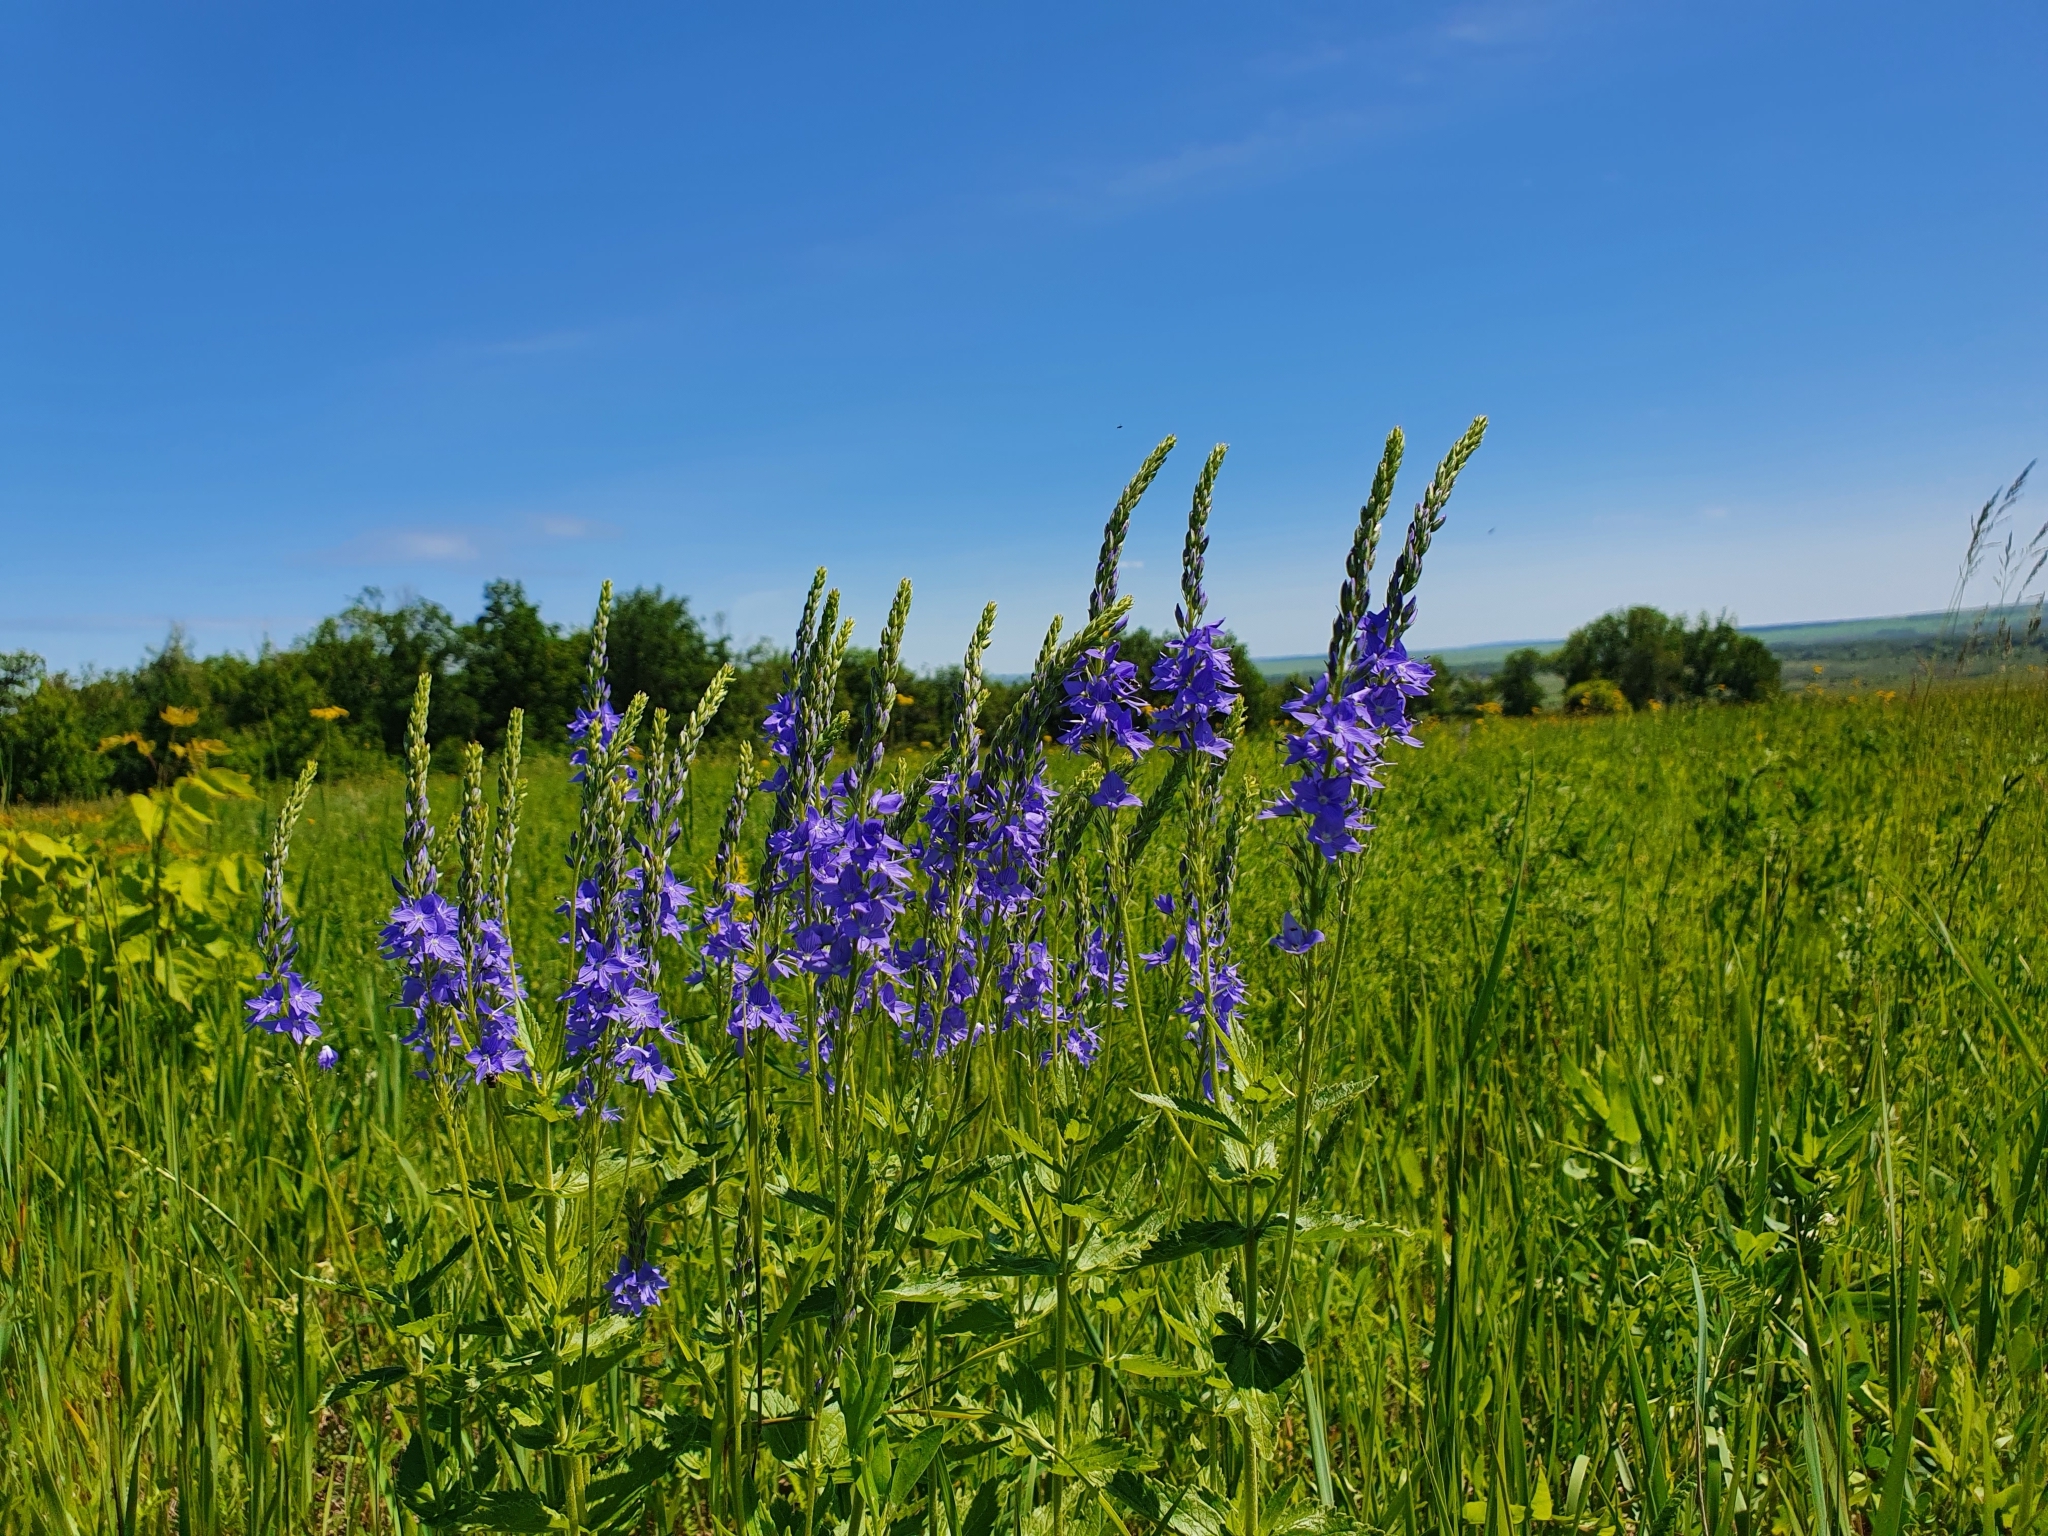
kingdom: Plantae
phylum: Tracheophyta
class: Magnoliopsida
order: Lamiales
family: Plantaginaceae
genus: Veronica
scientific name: Veronica teucrium
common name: Large speedwell
